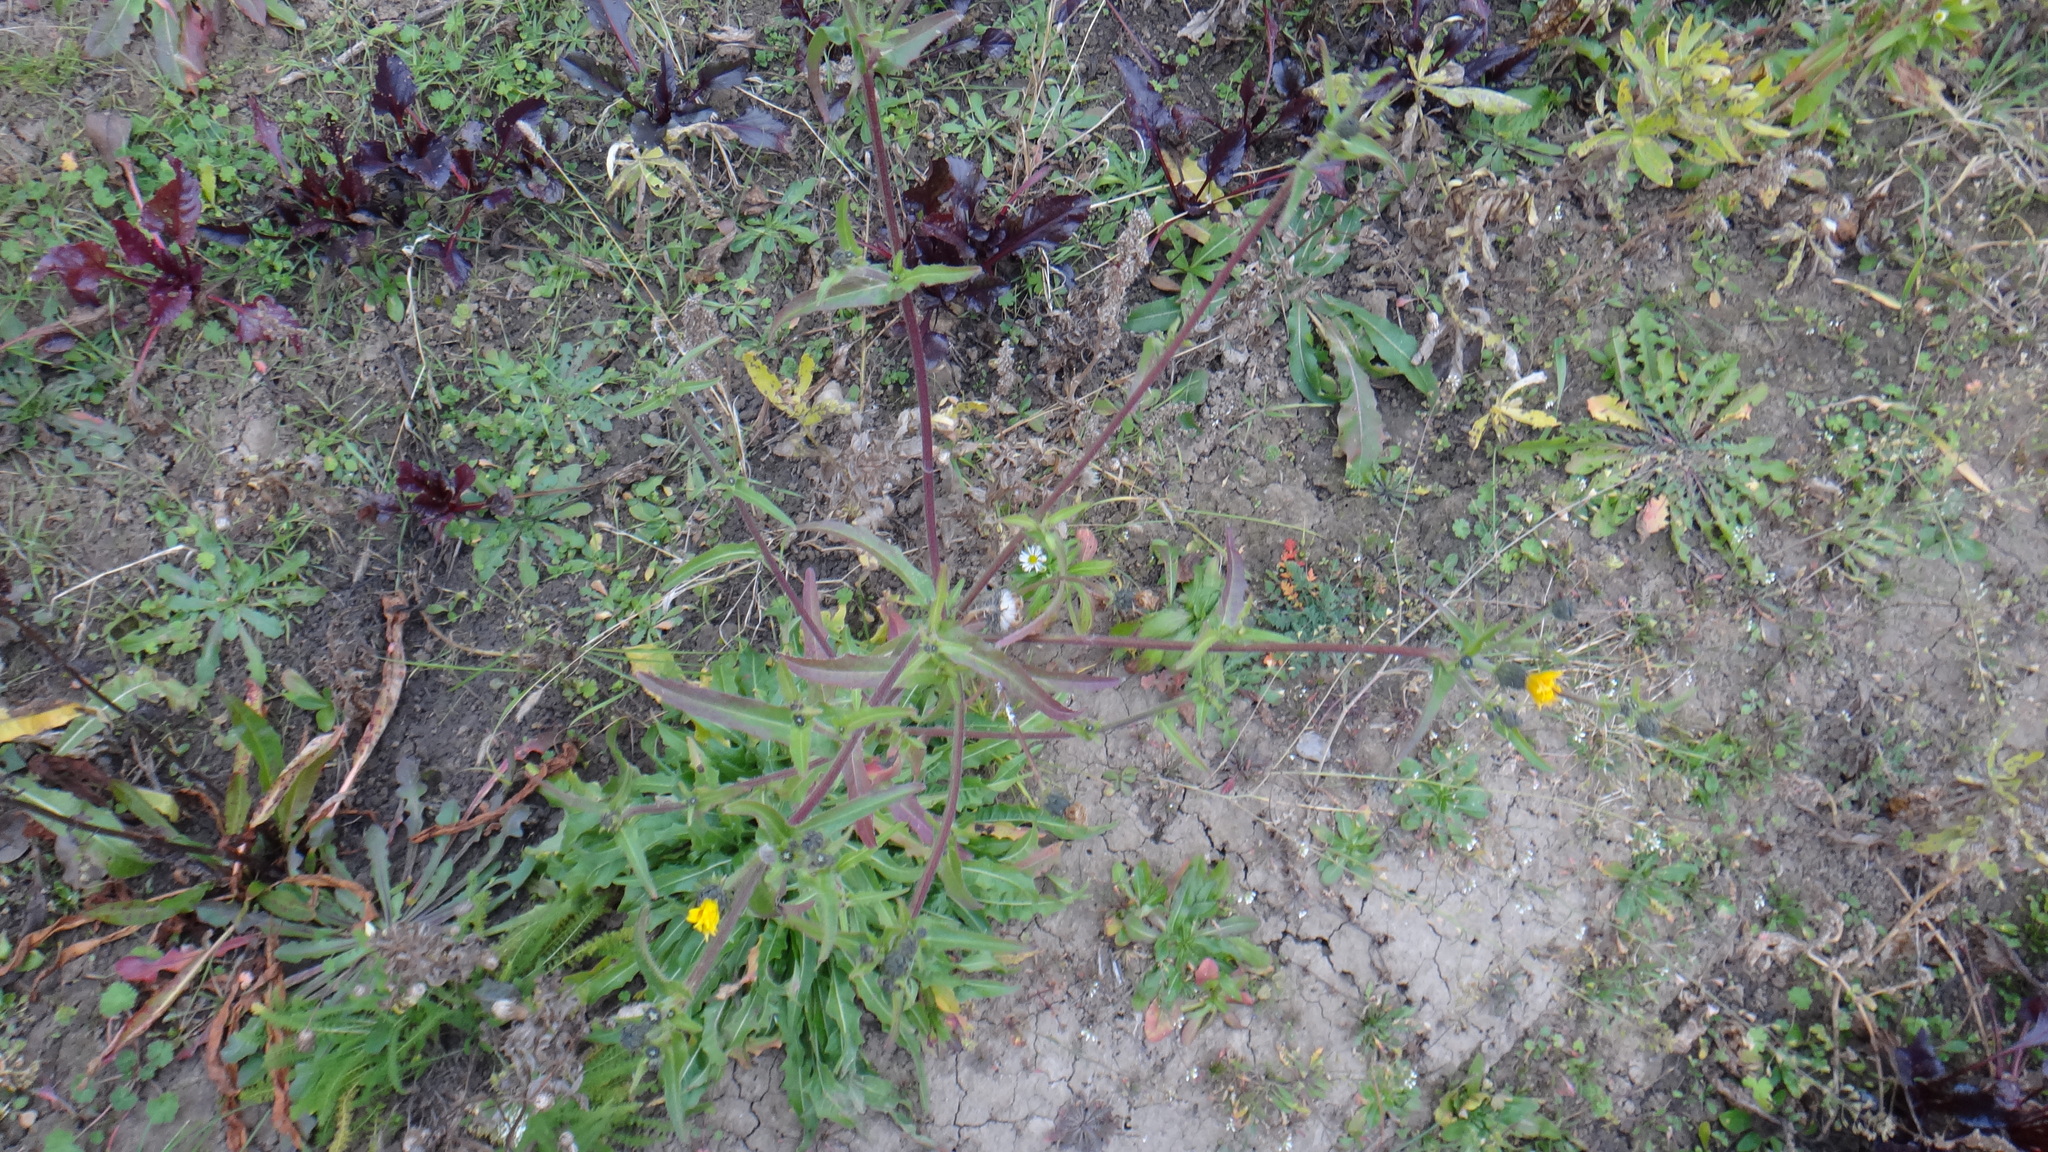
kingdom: Plantae
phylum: Tracheophyta
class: Magnoliopsida
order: Asterales
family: Asteraceae
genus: Picris
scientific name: Picris hieracioides
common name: Hawkweed oxtongue
